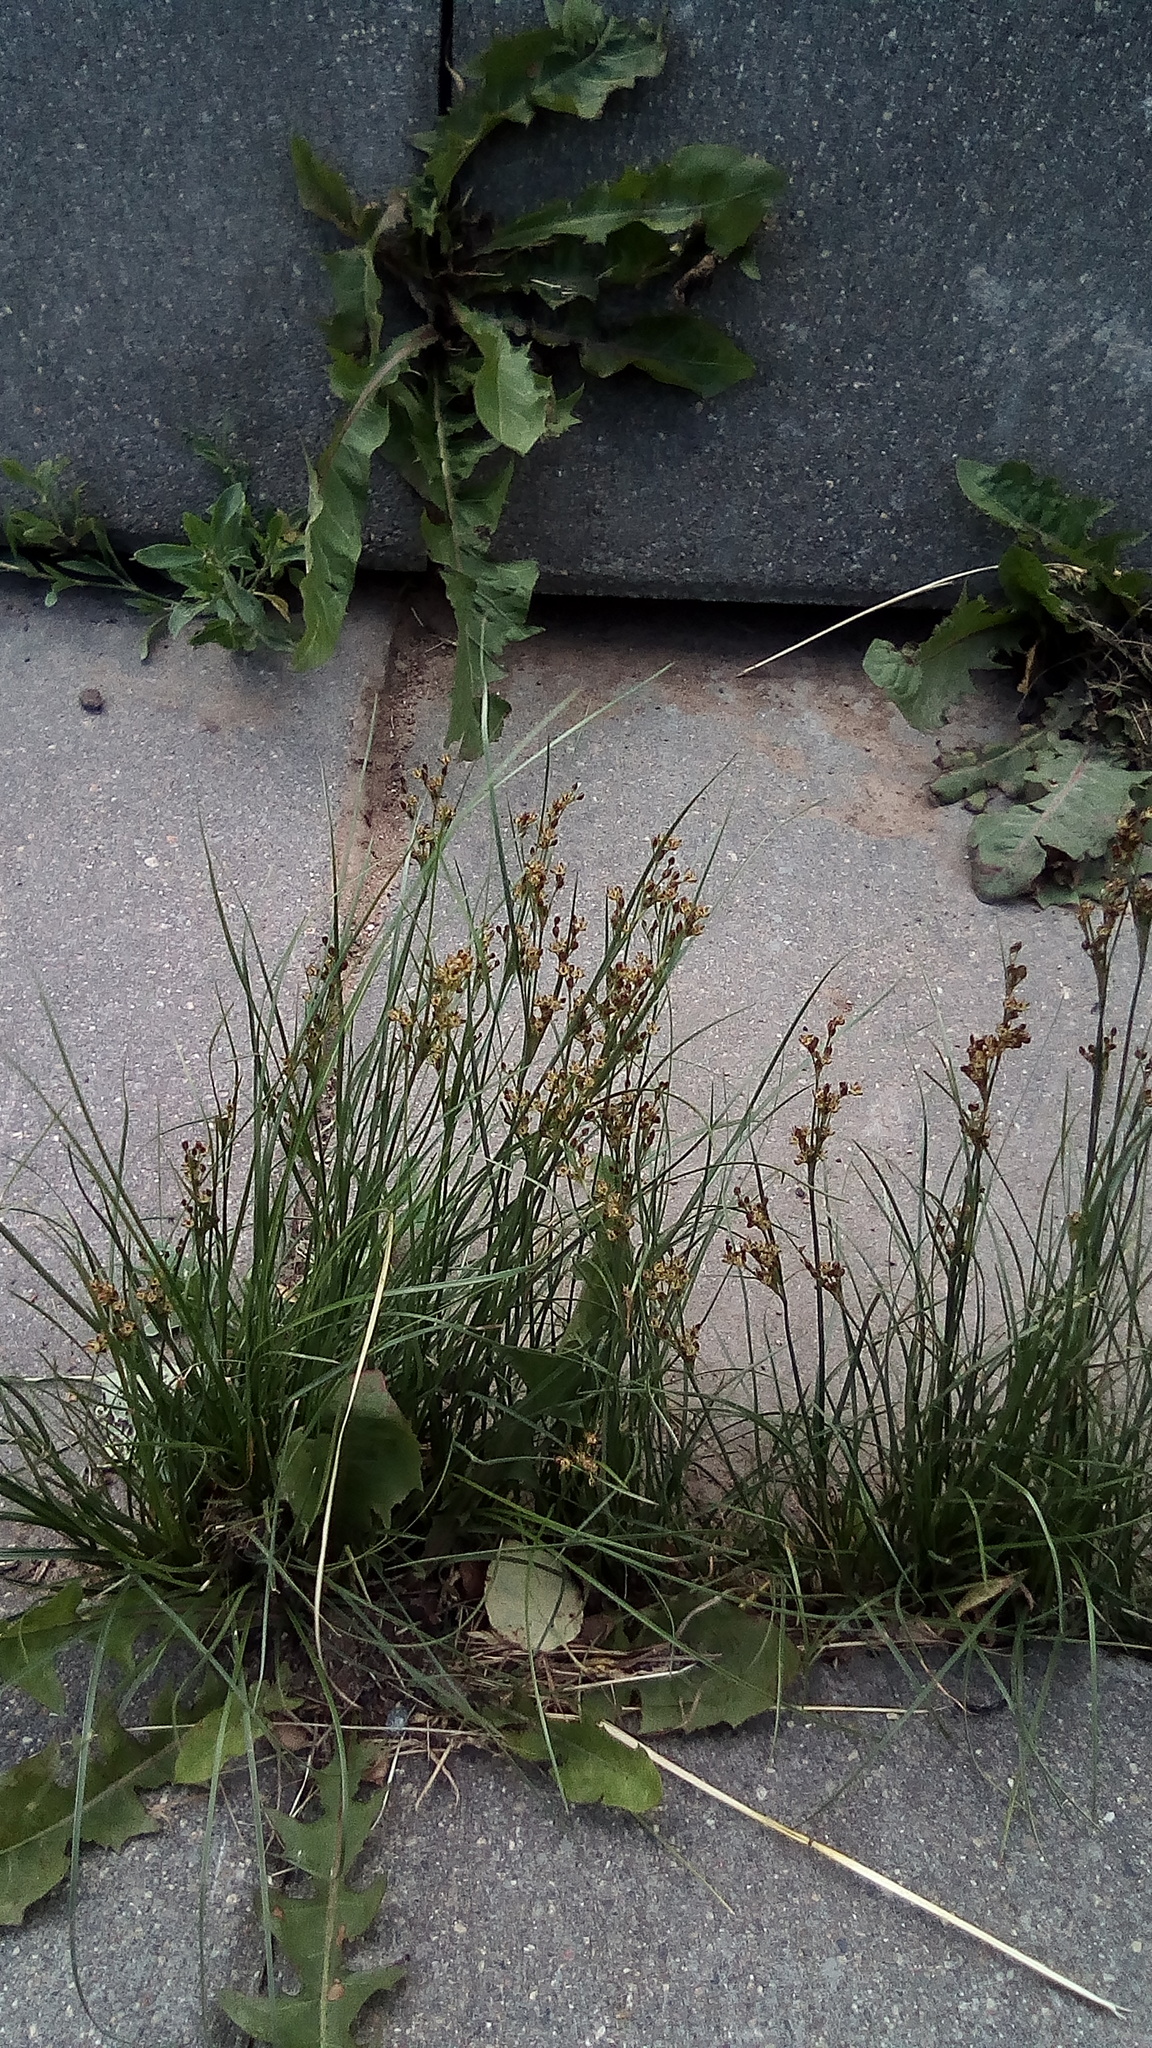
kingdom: Plantae
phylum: Tracheophyta
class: Liliopsida
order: Poales
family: Juncaceae
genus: Juncus
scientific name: Juncus compressus
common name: Round-fruited rush
